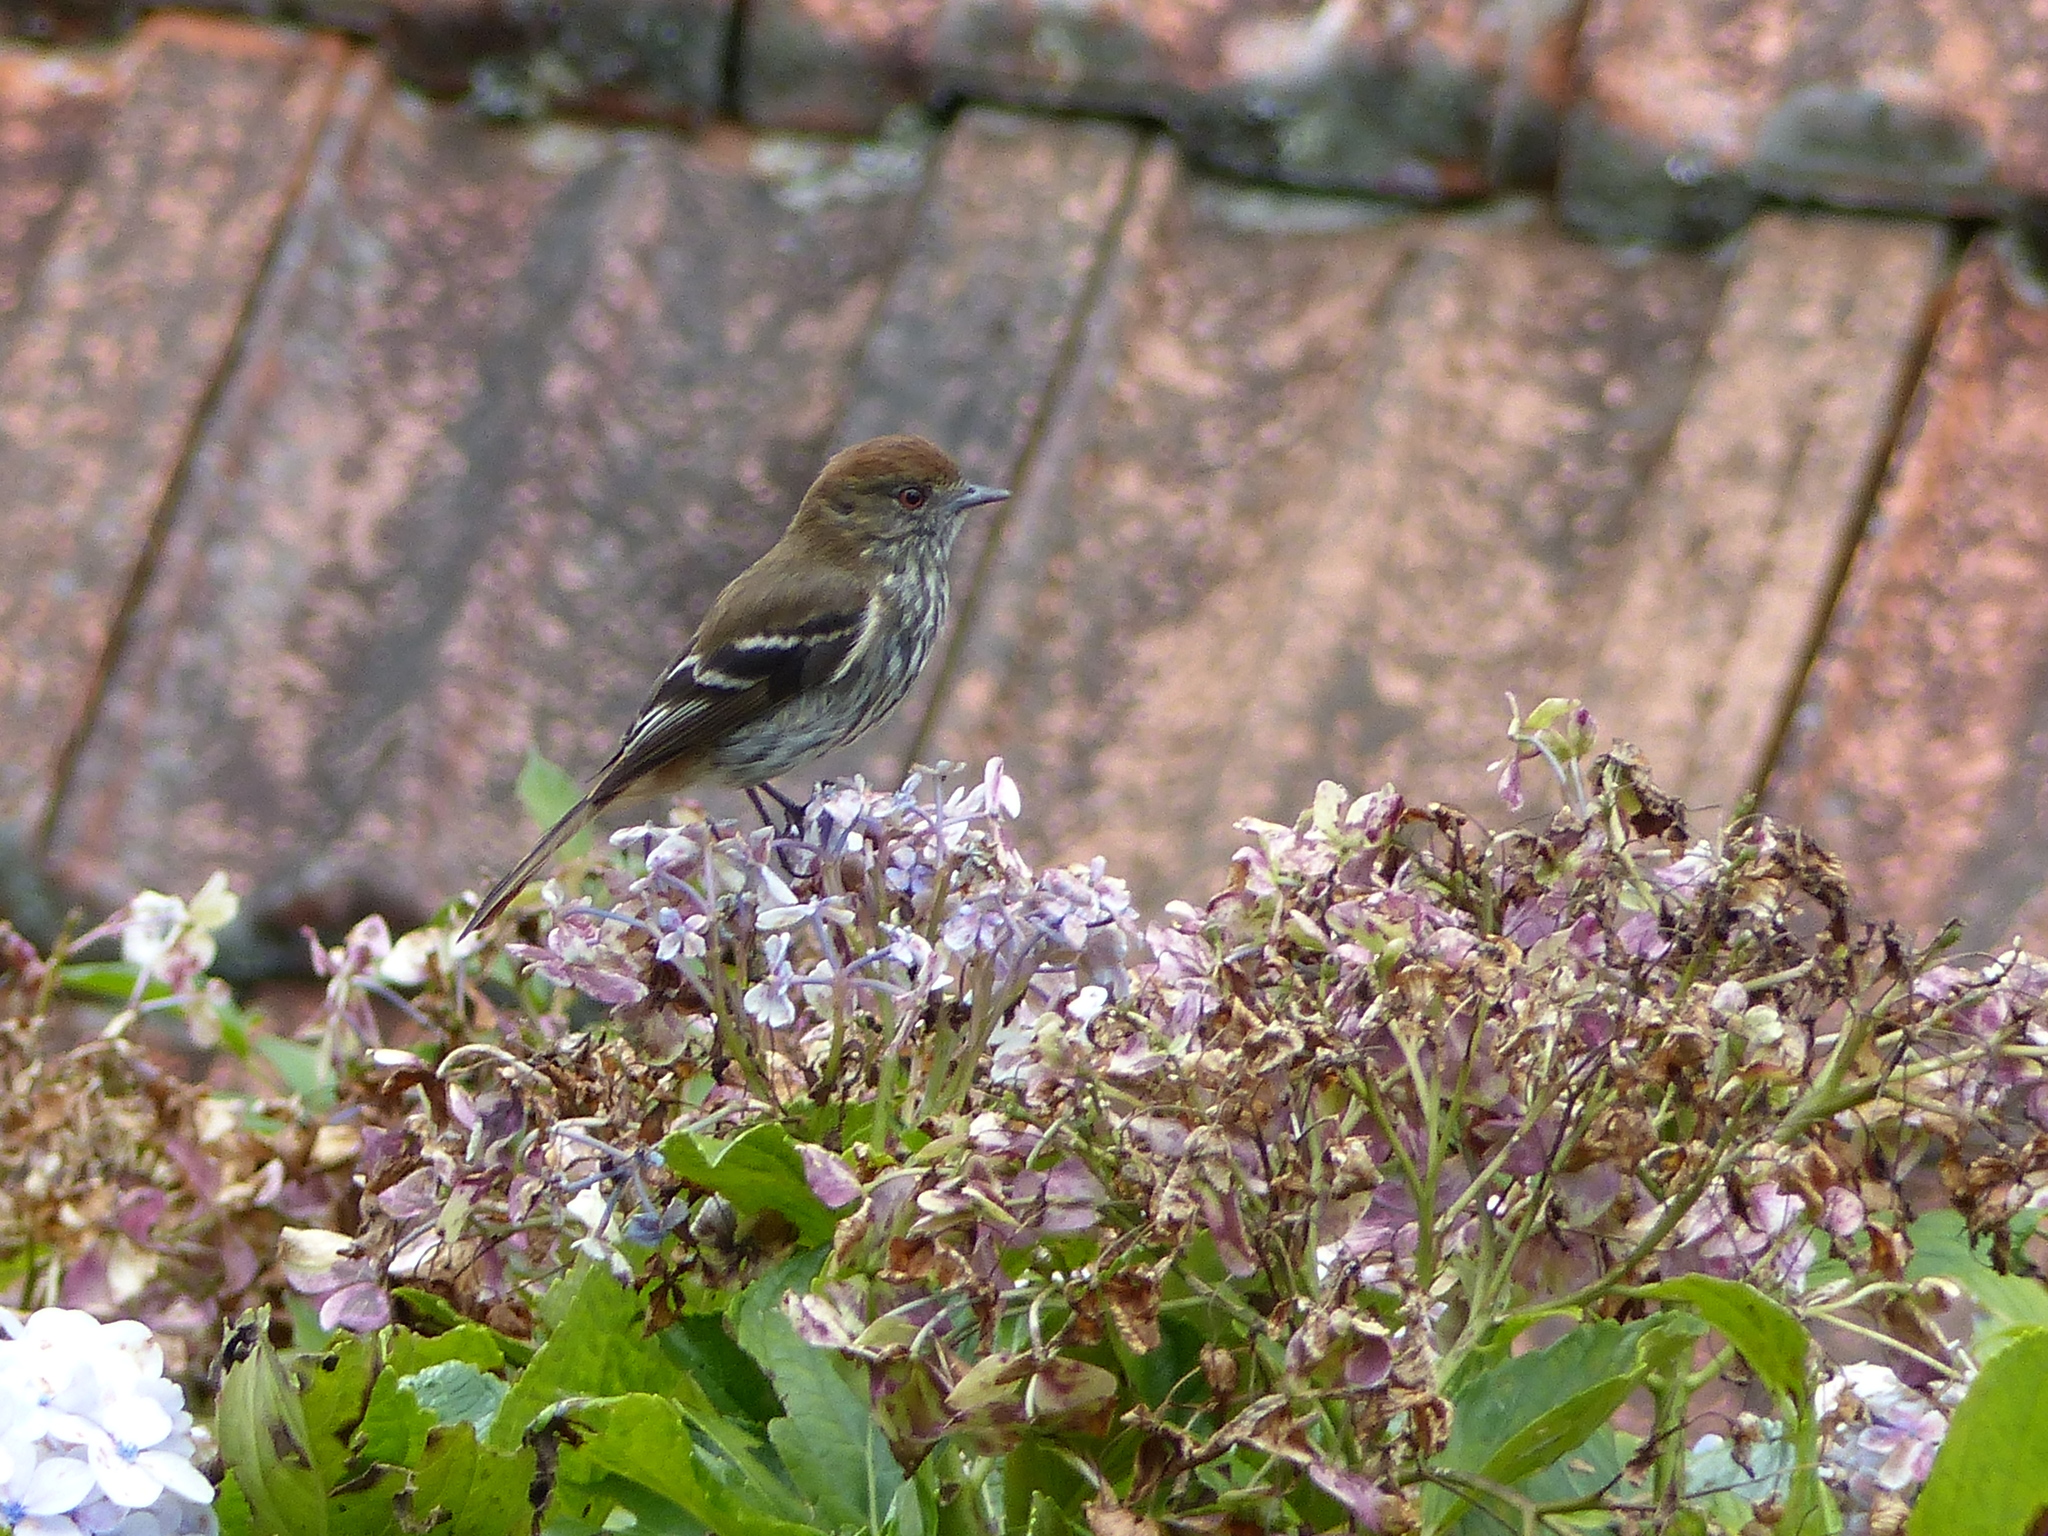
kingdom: Animalia
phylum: Chordata
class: Aves
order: Passeriformes
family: Tyrannidae
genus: Knipolegus
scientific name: Knipolegus cyanirostris
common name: Blue-billed black tyrant
